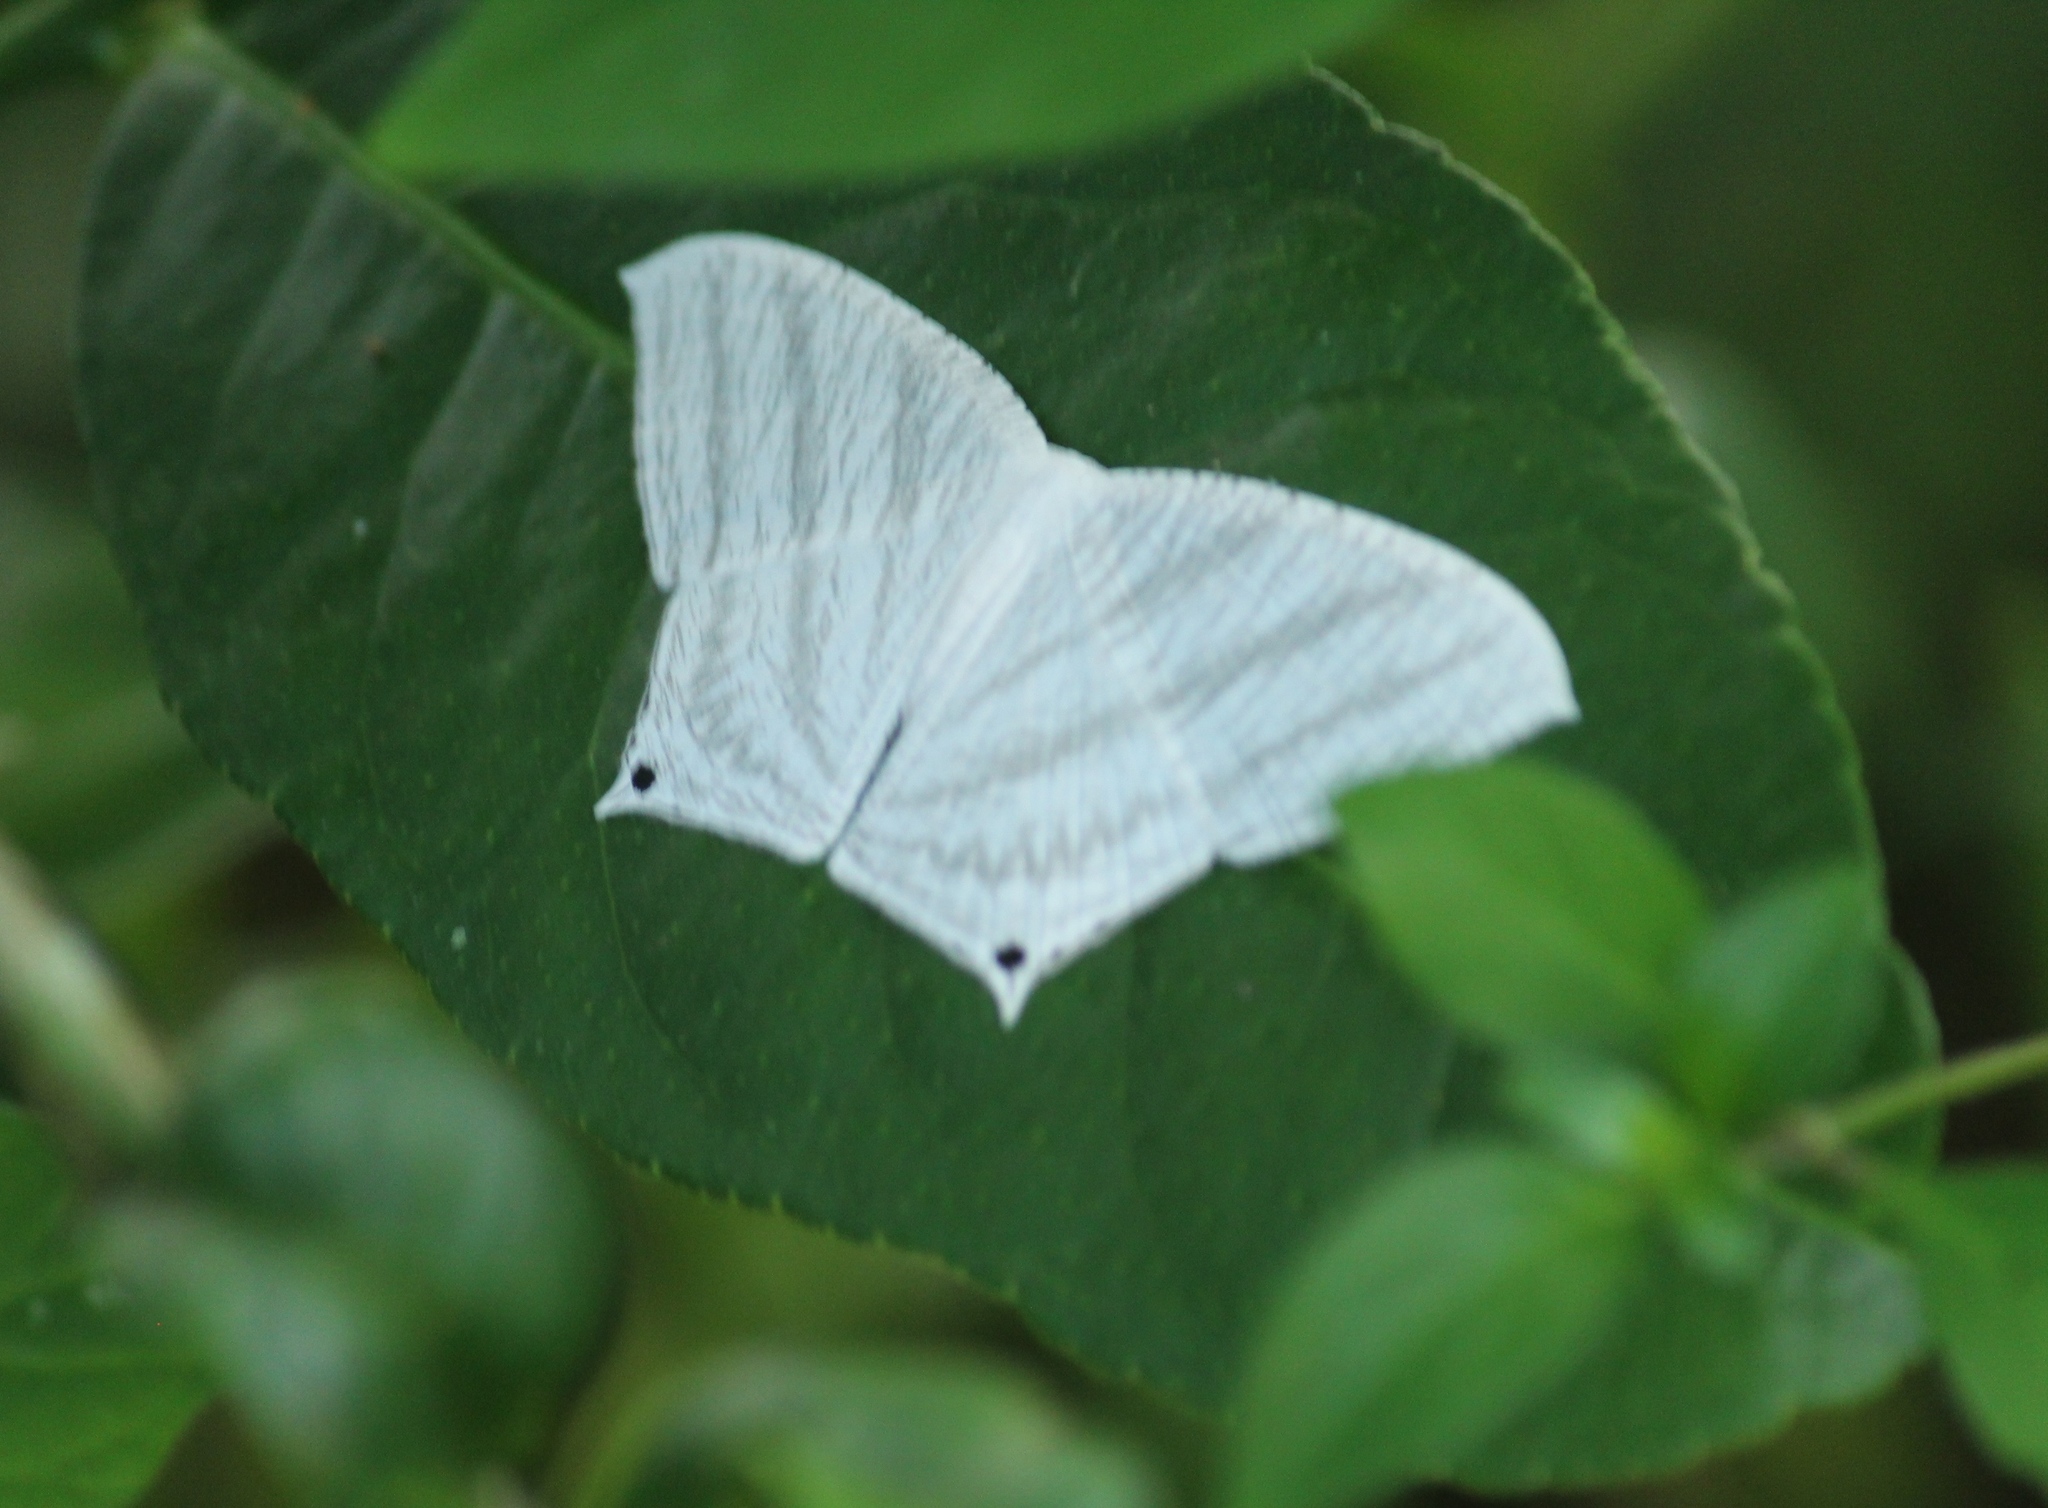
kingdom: Animalia
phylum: Arthropoda
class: Insecta
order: Lepidoptera
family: Uraniidae
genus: Micronia
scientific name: Micronia aculeata
